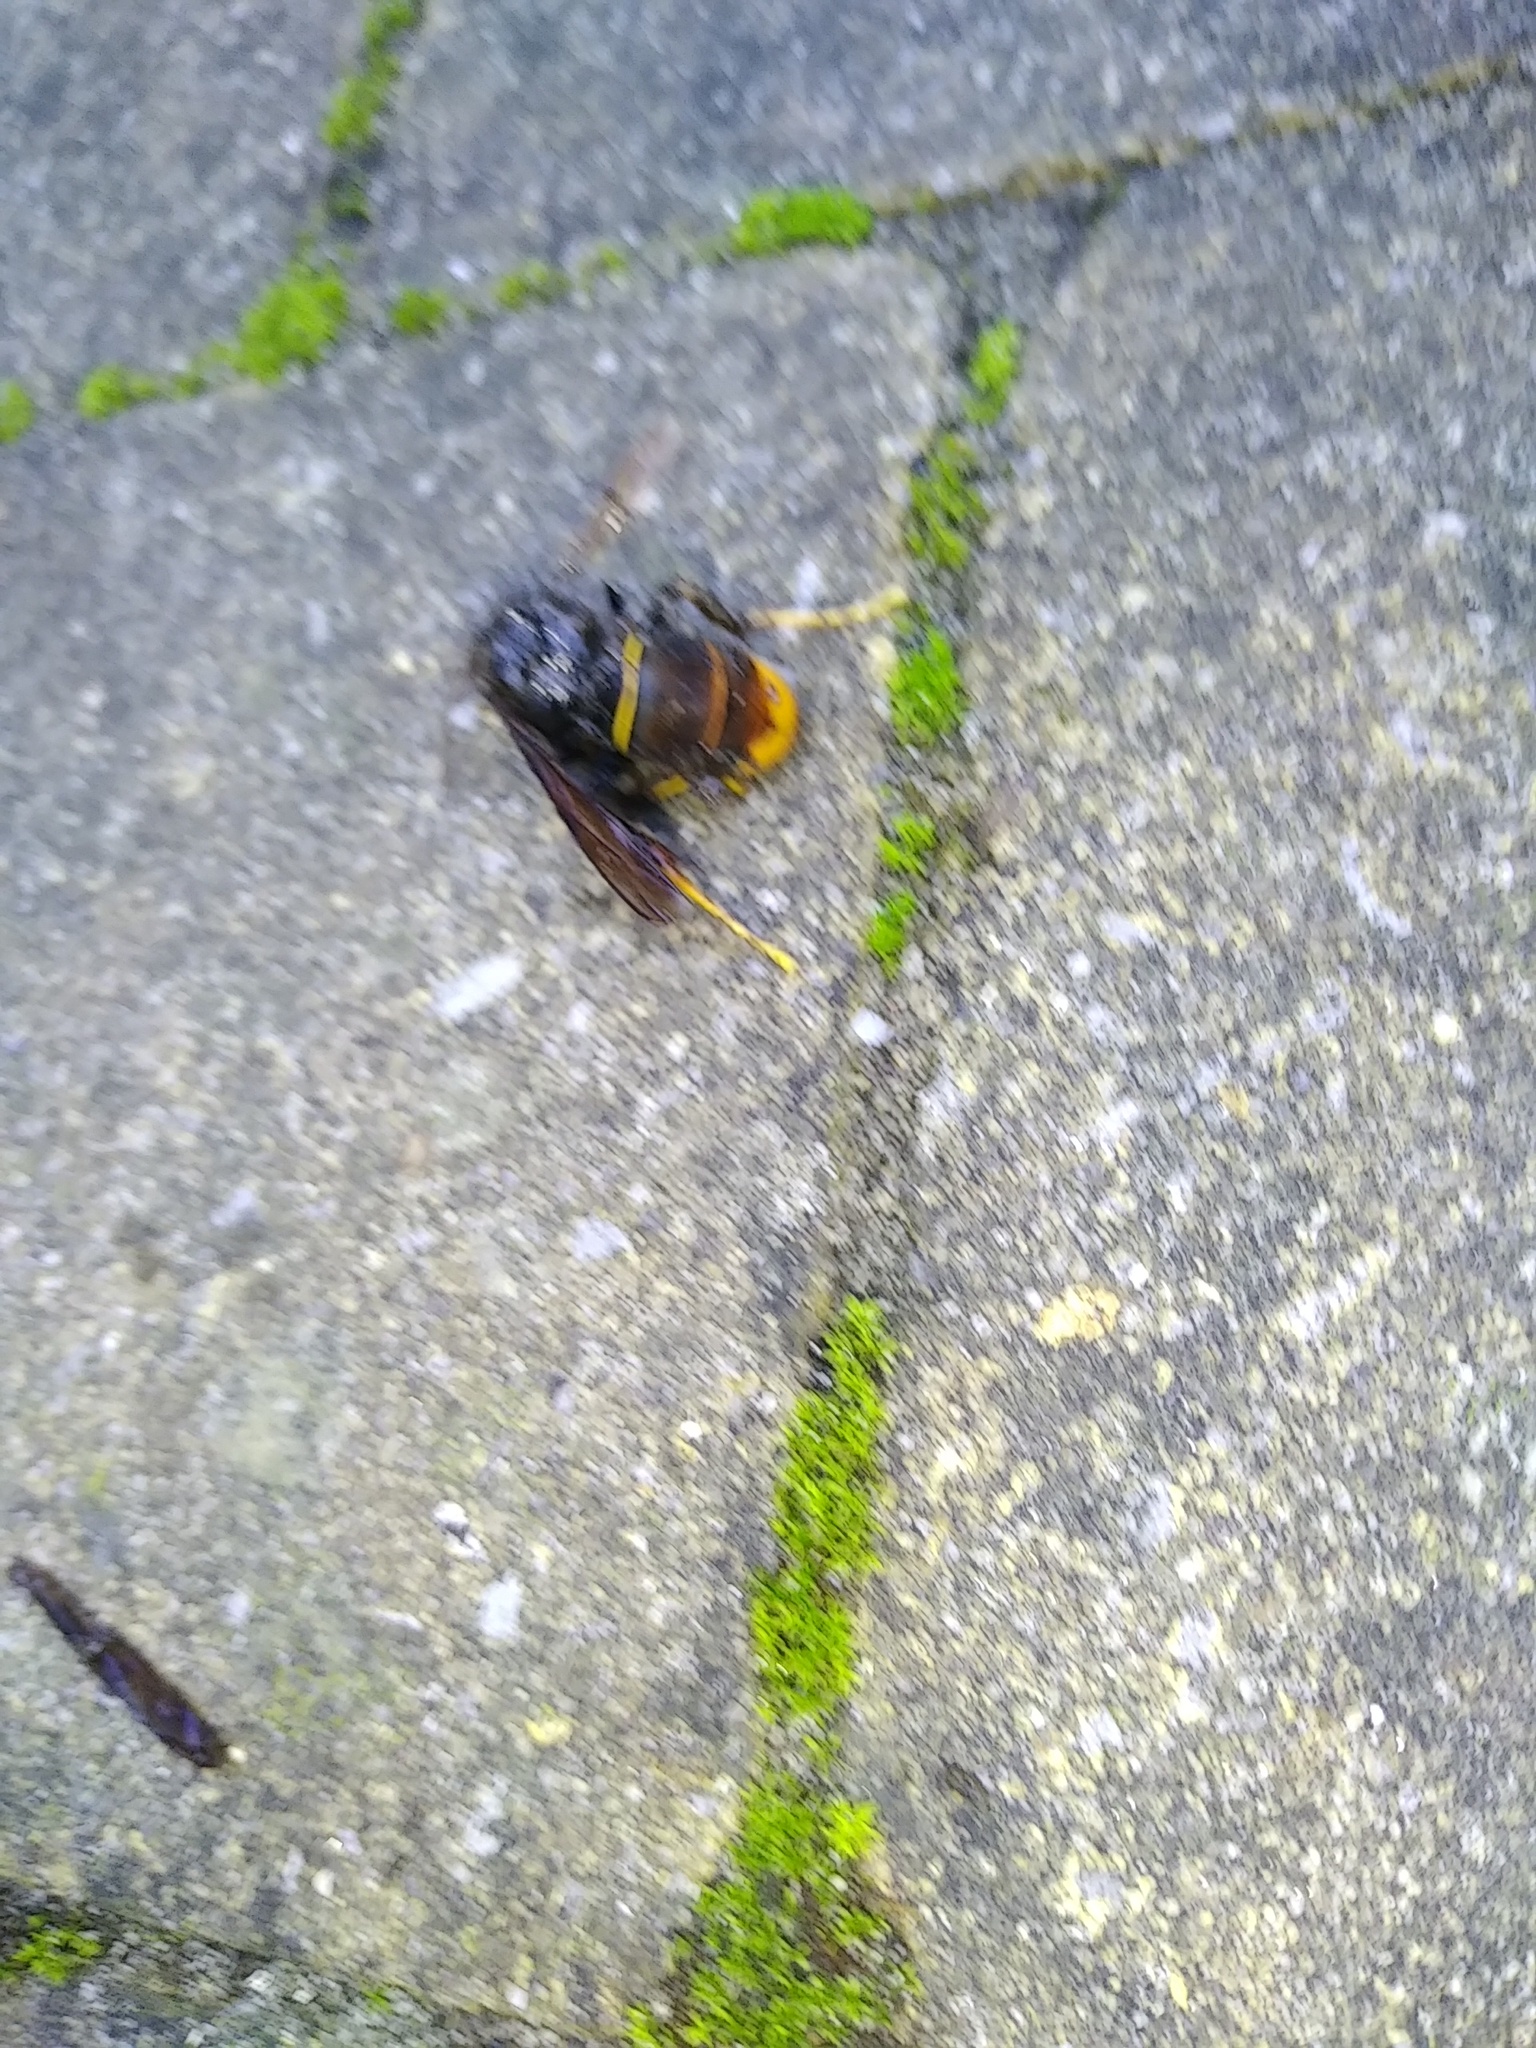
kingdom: Animalia
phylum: Arthropoda
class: Insecta
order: Hymenoptera
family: Vespidae
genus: Vespa
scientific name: Vespa velutina
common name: Asian hornet
